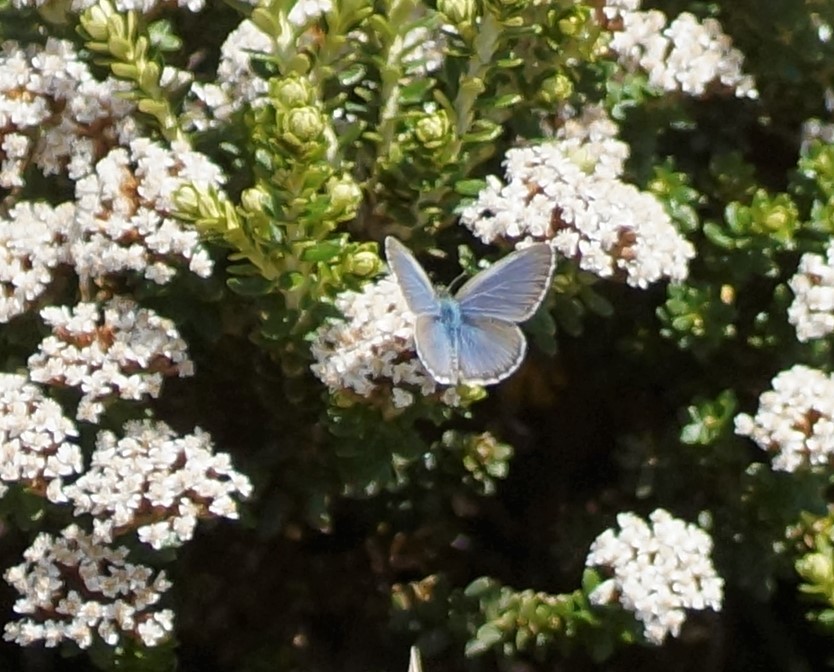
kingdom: Animalia
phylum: Arthropoda
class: Insecta
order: Lepidoptera
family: Lycaenidae
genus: Zizina
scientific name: Zizina labradus
